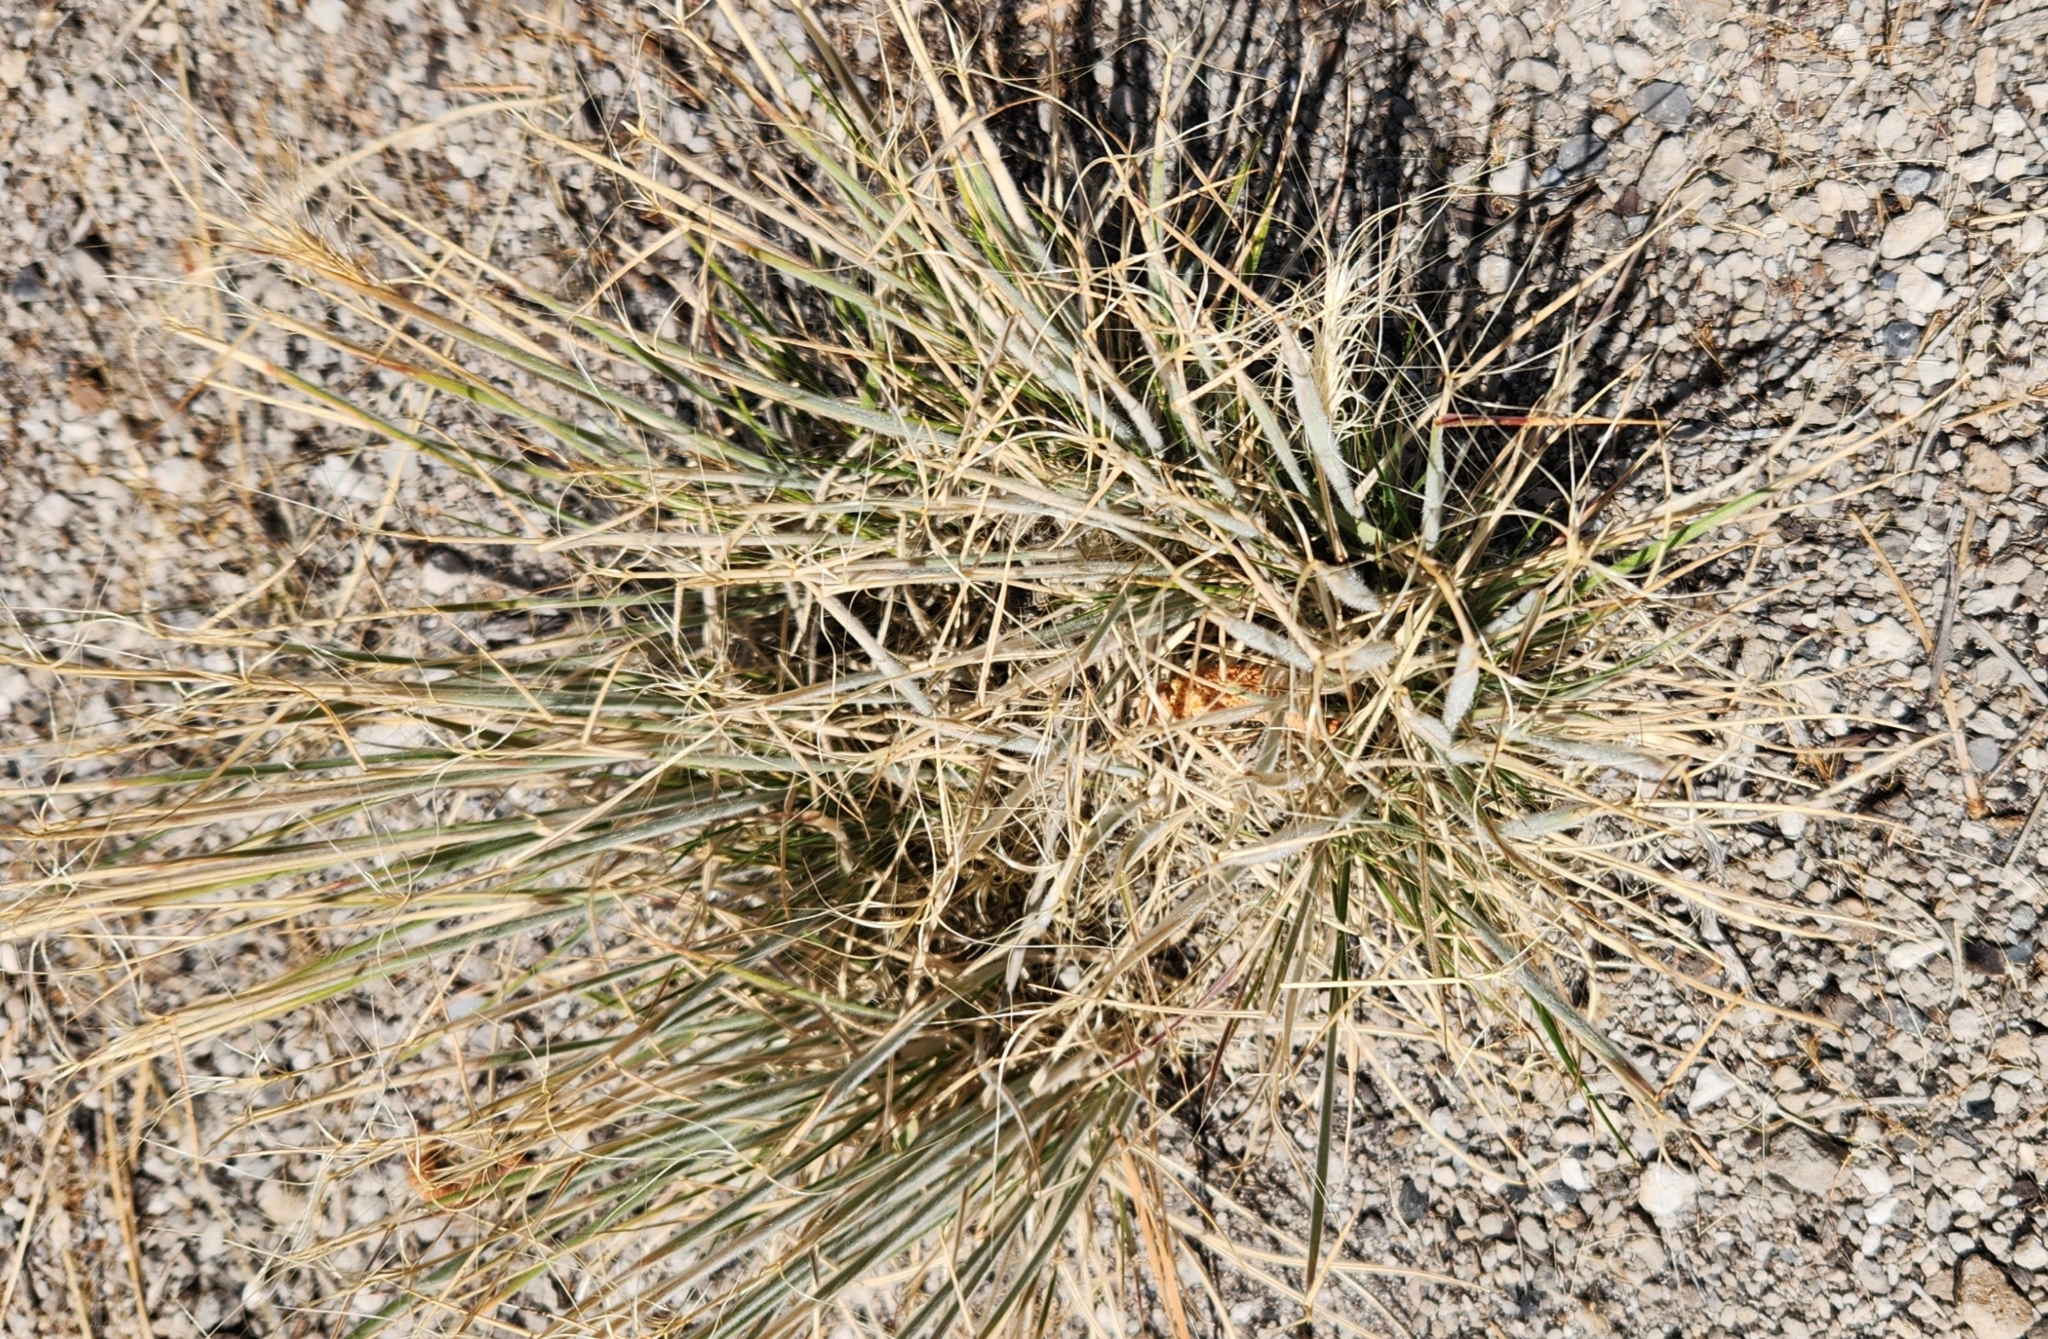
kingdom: Plantae
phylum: Tracheophyta
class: Liliopsida
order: Poales
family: Poaceae
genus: Elymus
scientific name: Elymus elymoides
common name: Bottlebrush squirreltail
